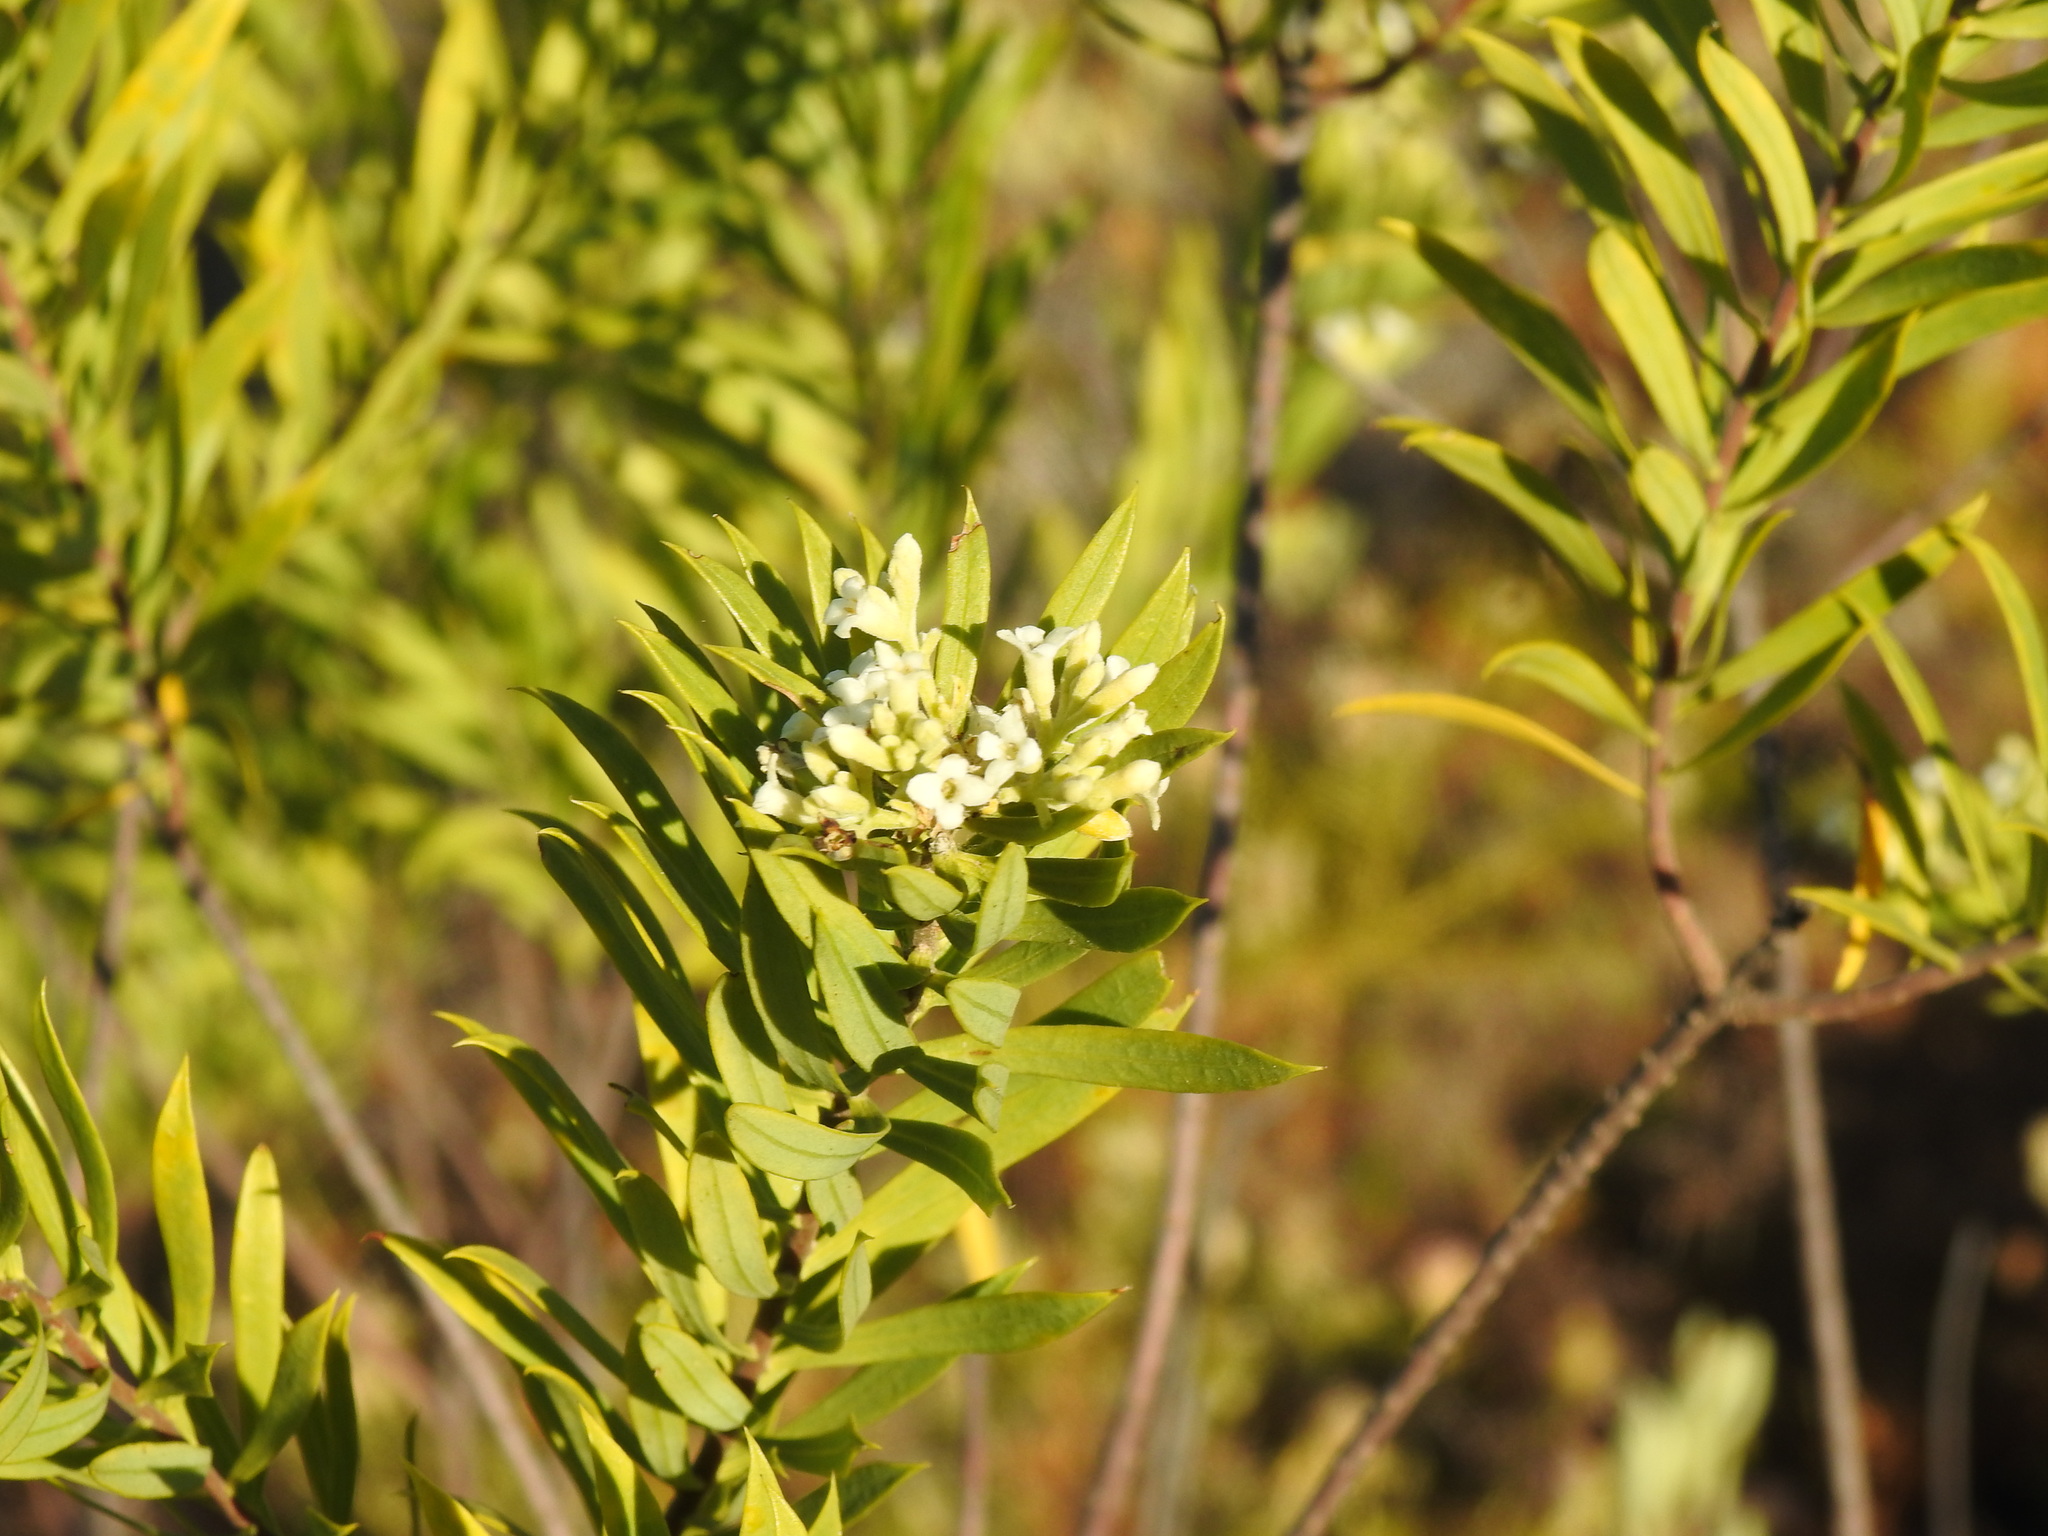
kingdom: Plantae
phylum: Tracheophyta
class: Magnoliopsida
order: Malvales
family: Thymelaeaceae
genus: Daphne
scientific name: Daphne gnidium
